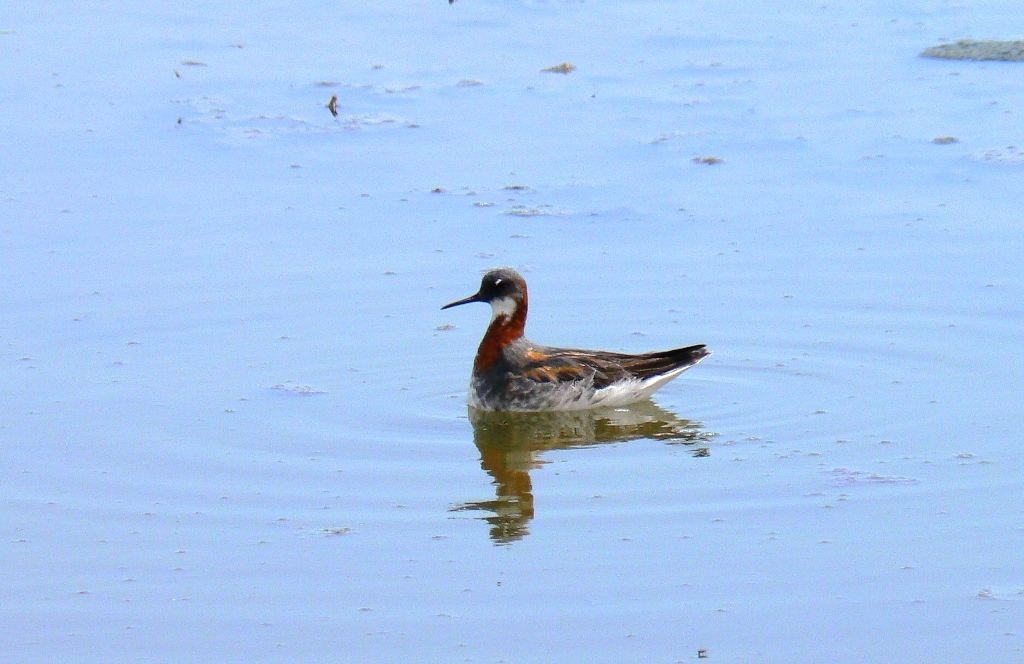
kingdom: Animalia
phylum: Chordata
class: Aves
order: Charadriiformes
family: Scolopacidae
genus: Phalaropus
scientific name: Phalaropus lobatus
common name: Red-necked phalarope
